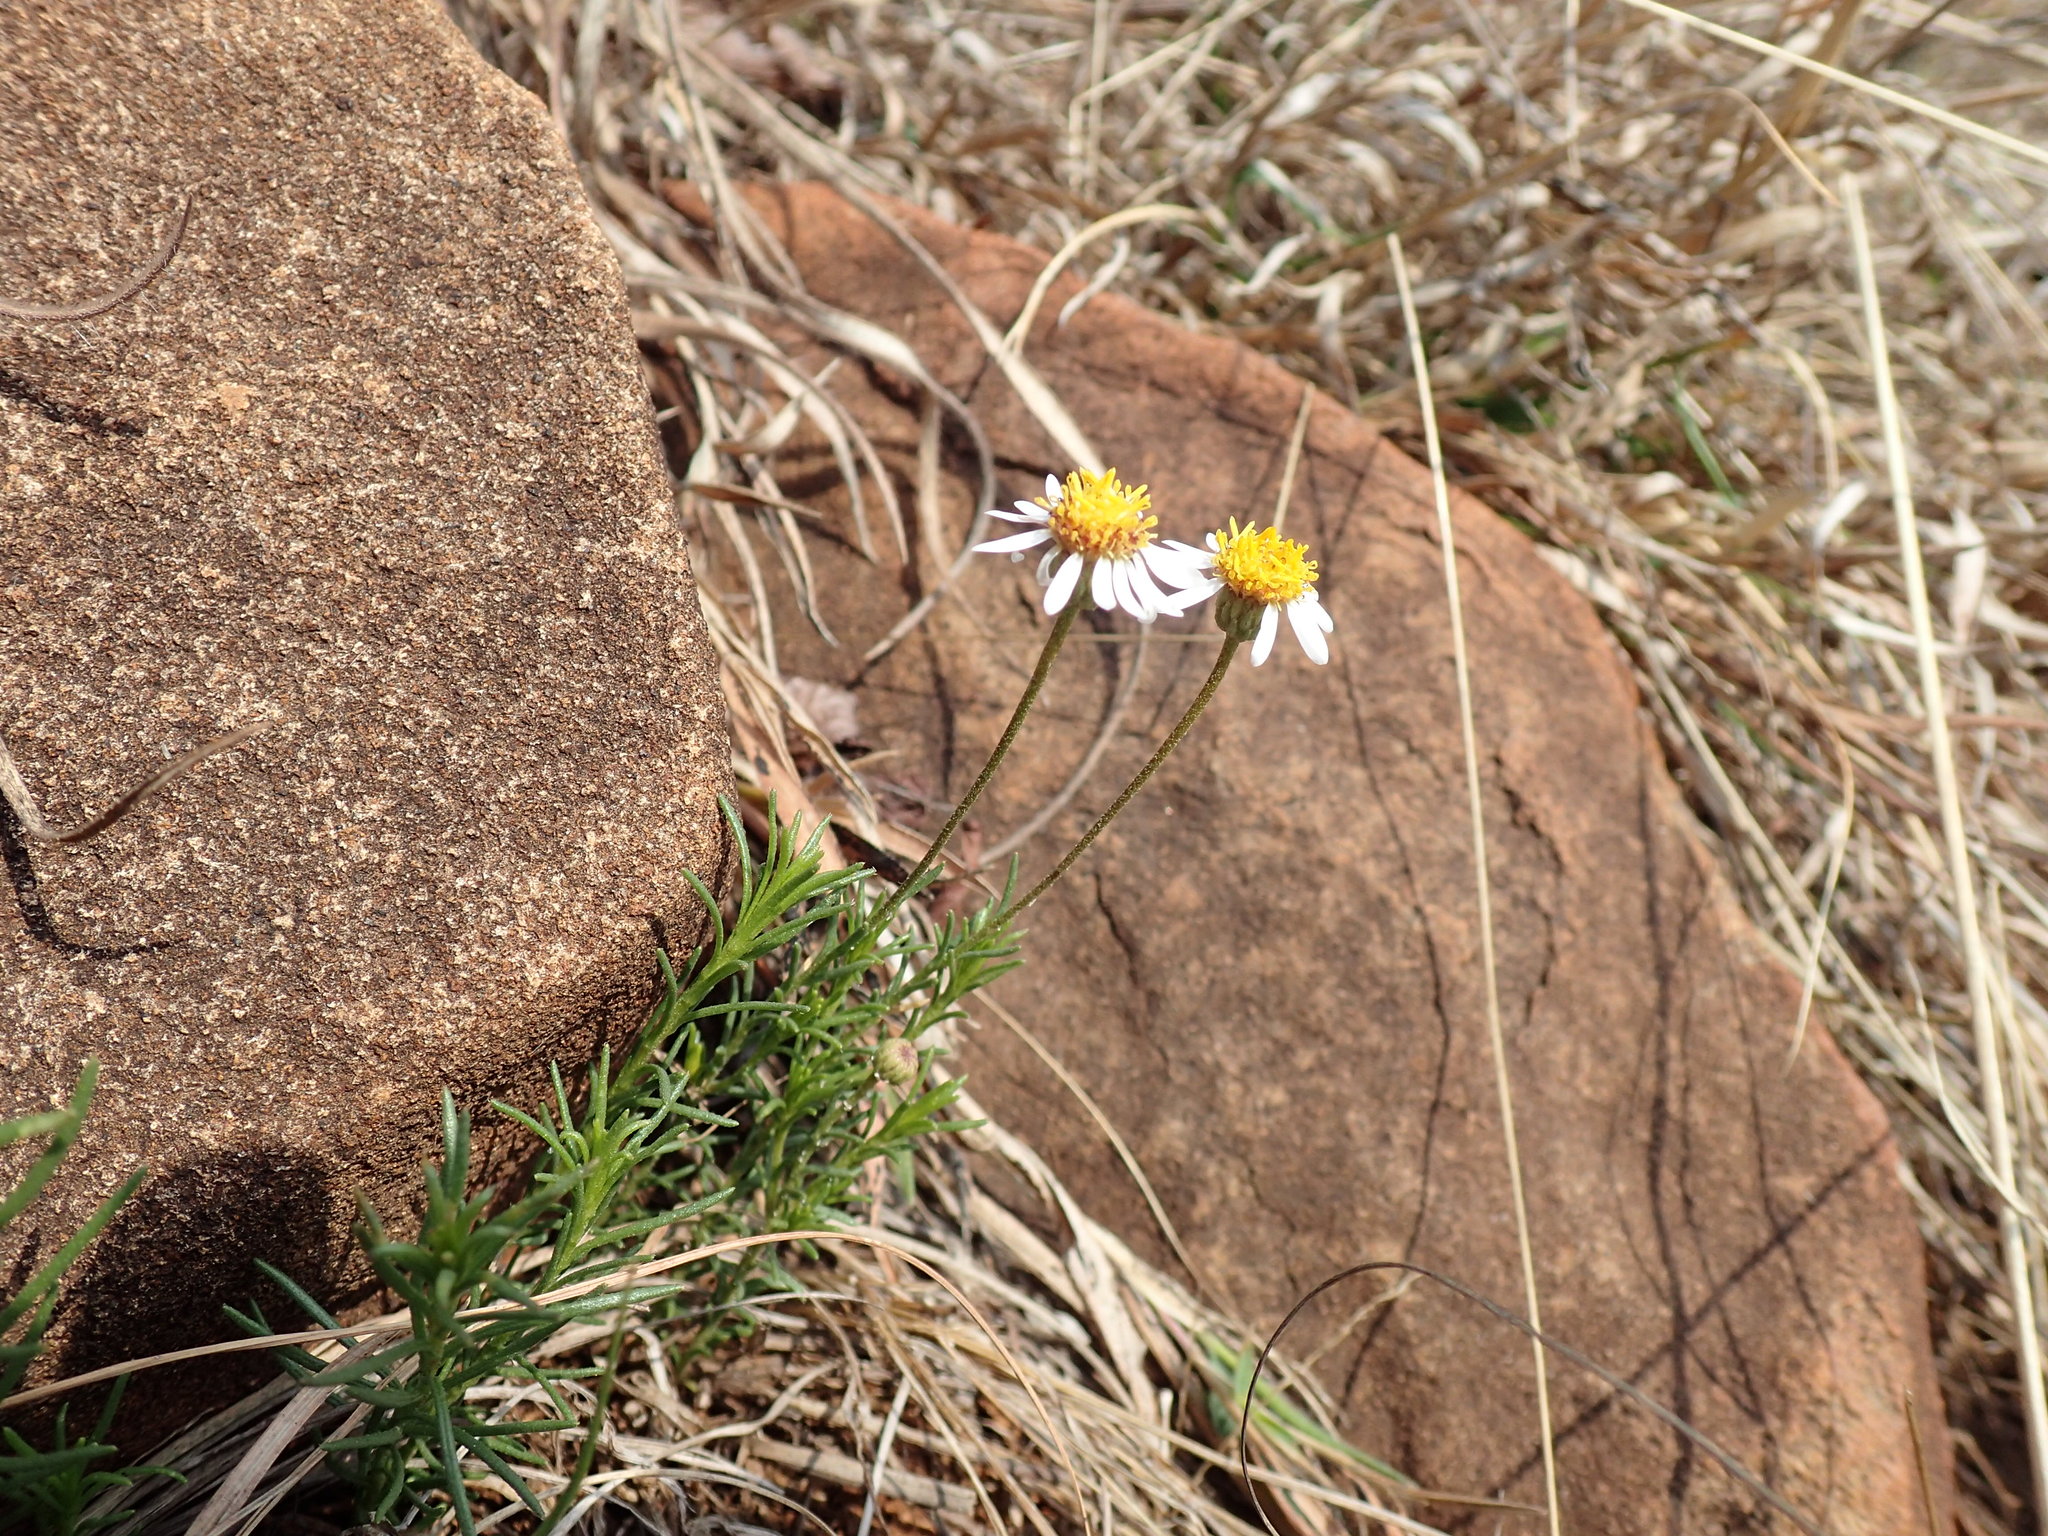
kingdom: Plantae
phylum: Tracheophyta
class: Magnoliopsida
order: Asterales
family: Asteraceae
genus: Felicia
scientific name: Felicia muricata
